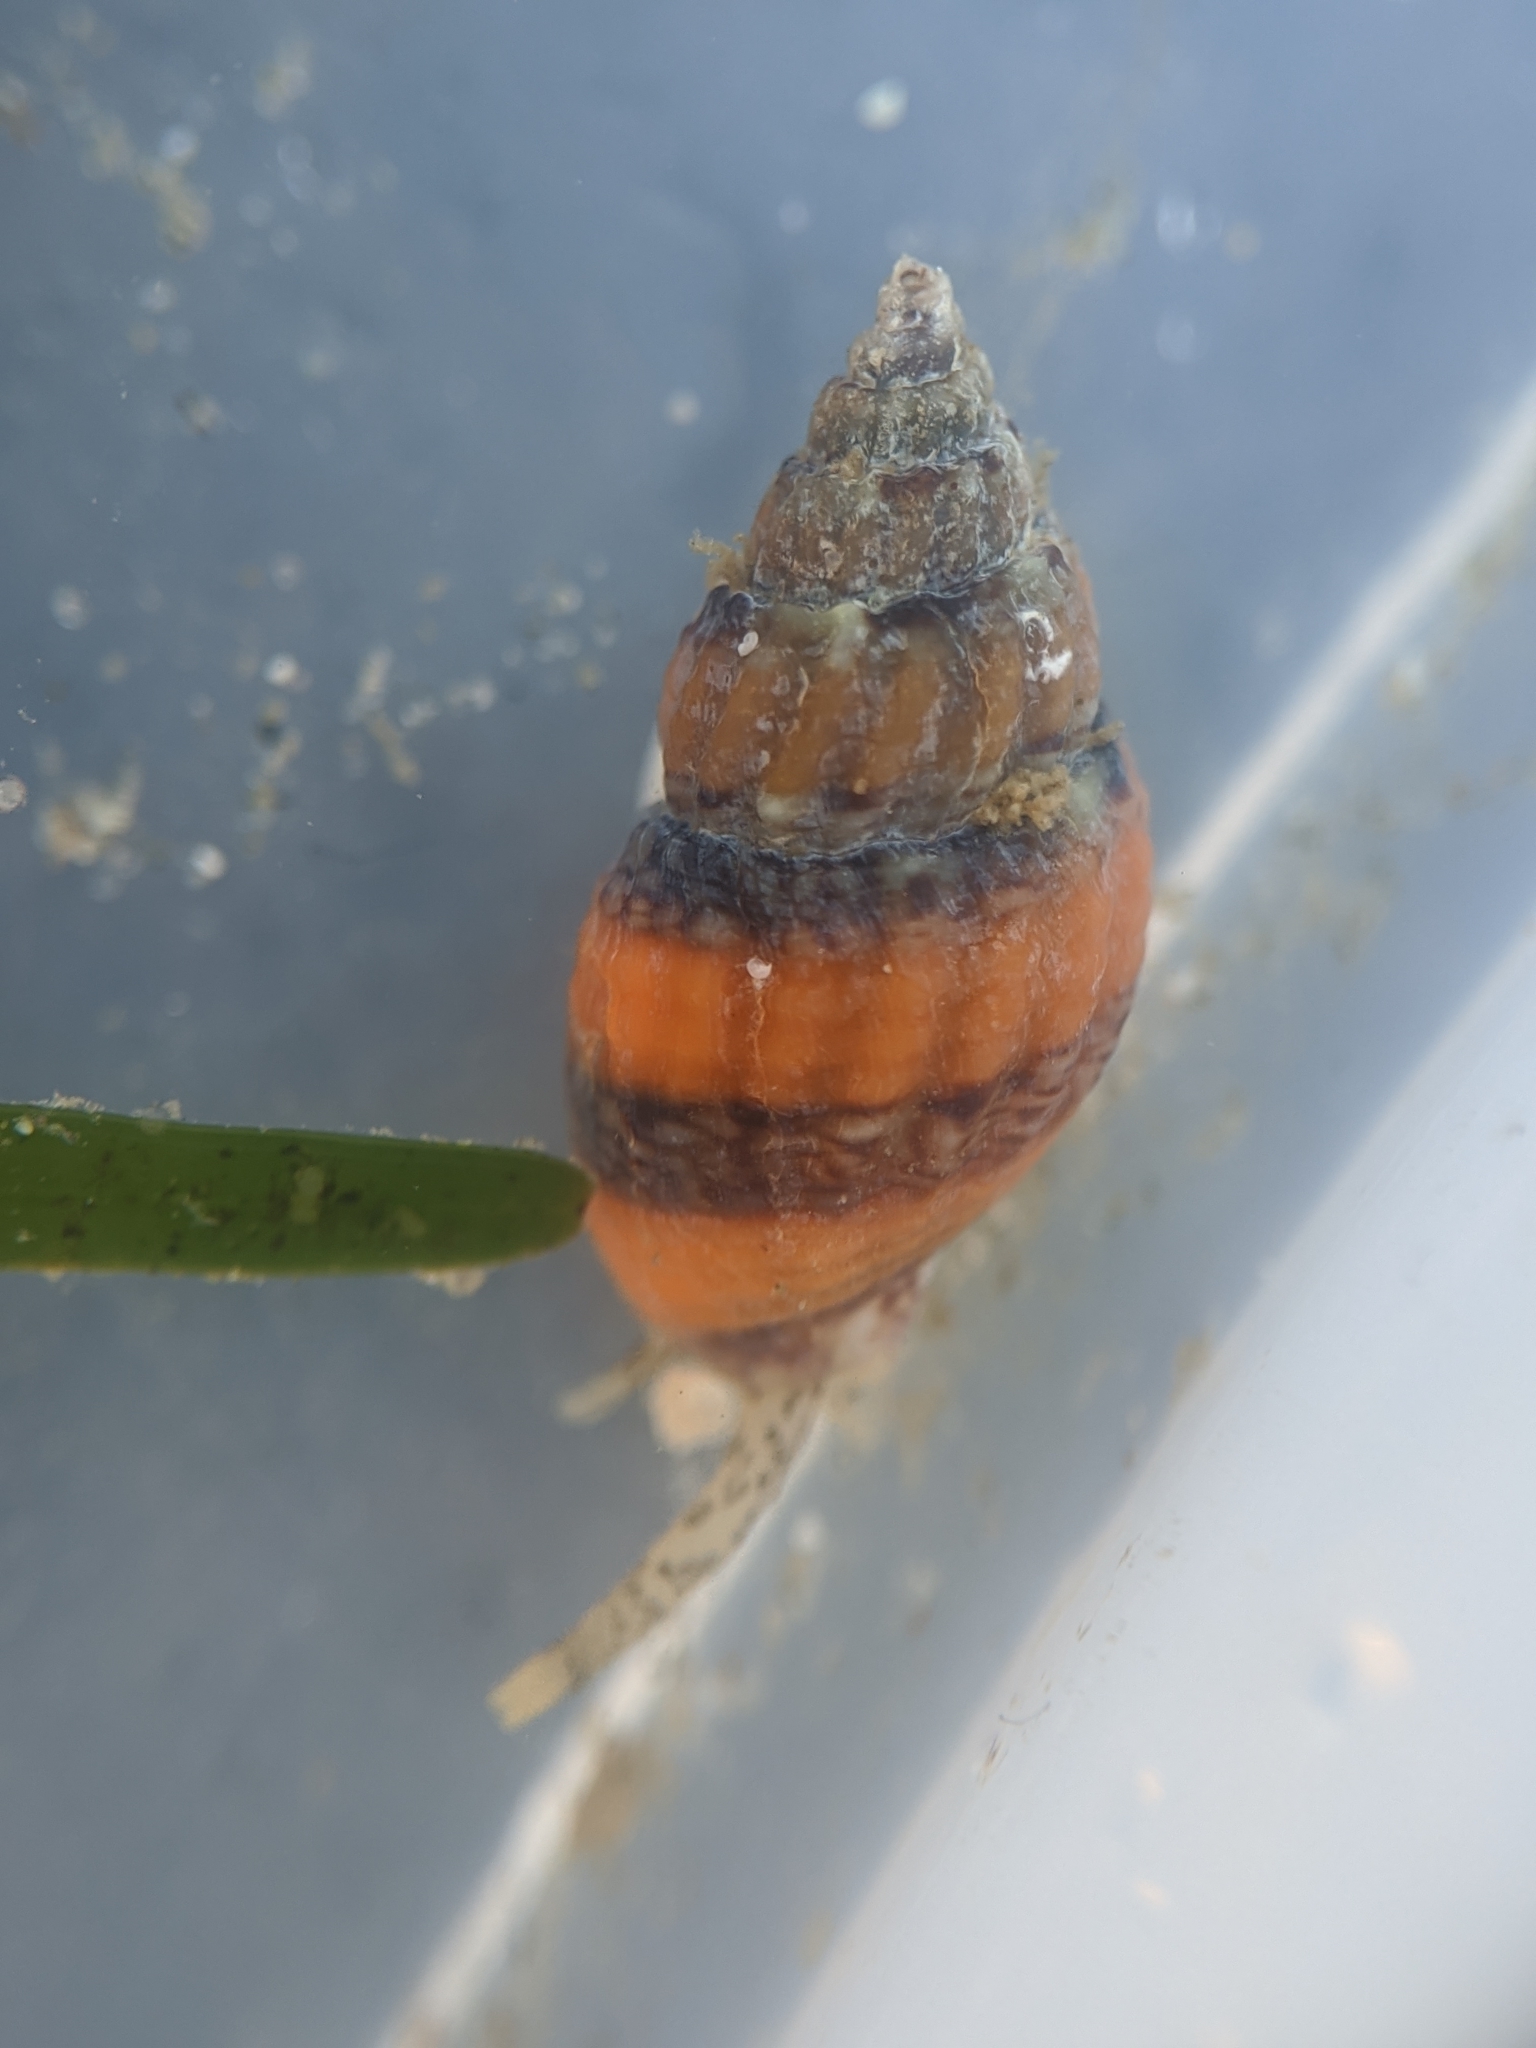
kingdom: Animalia
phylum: Mollusca
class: Gastropoda
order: Neogastropoda
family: Columbellidae
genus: Amphissa
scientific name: Amphissa versicolor
